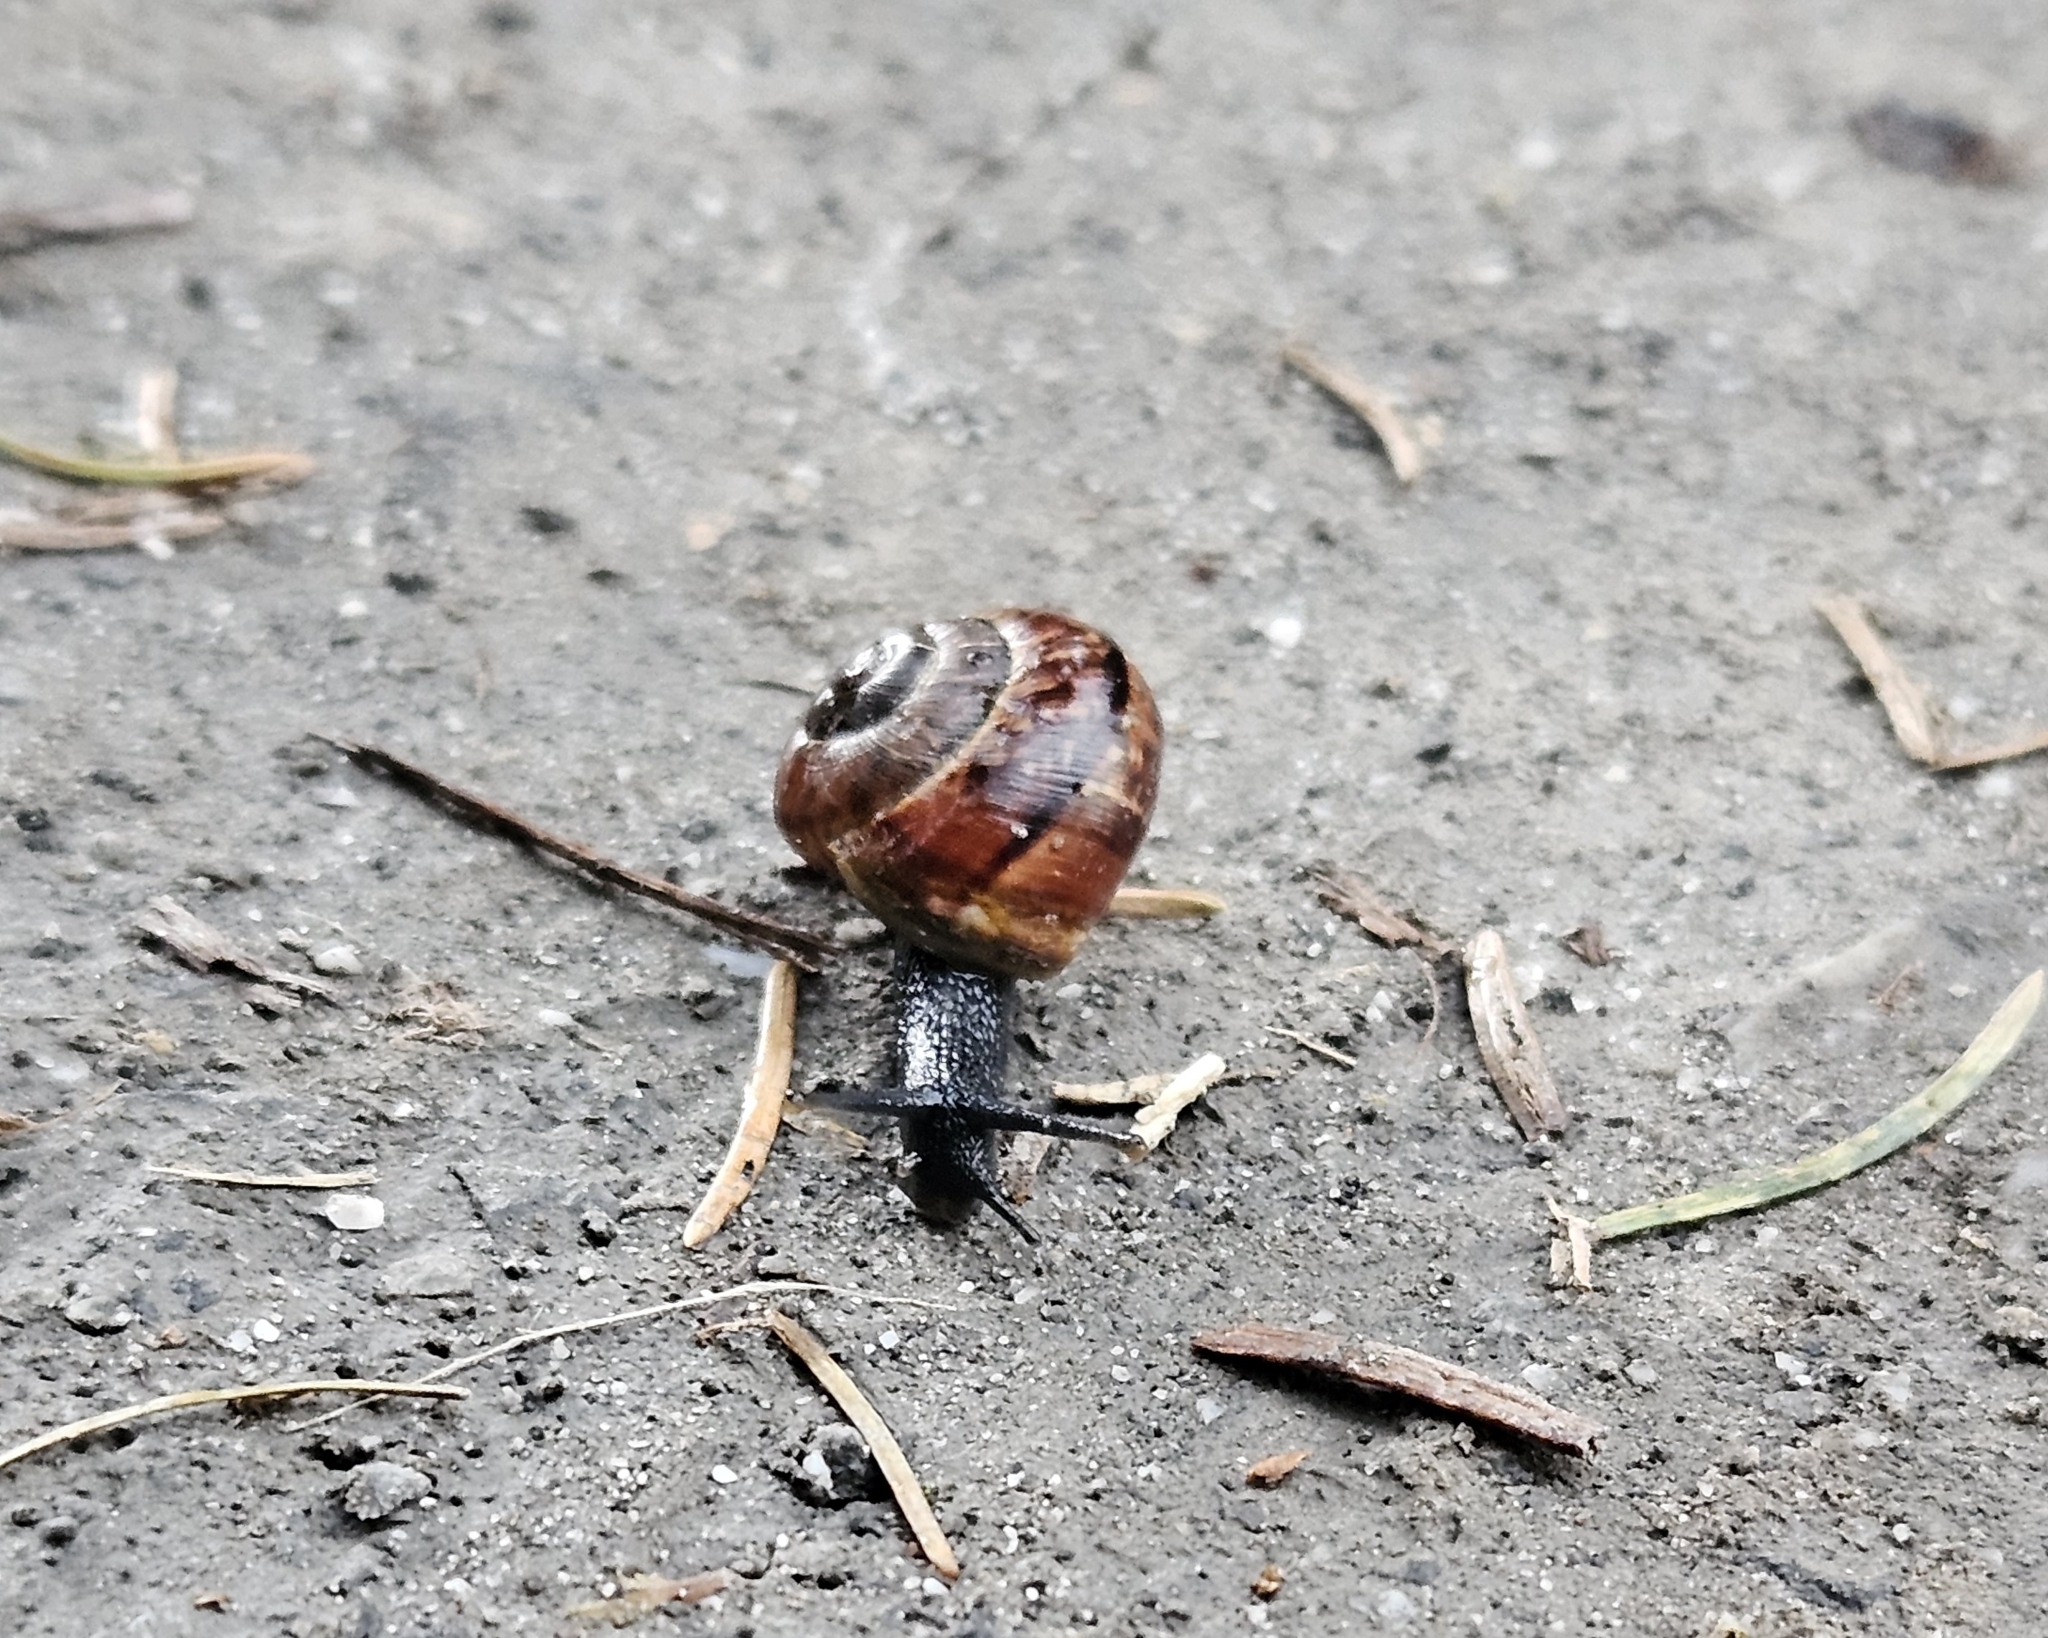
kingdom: Animalia
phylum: Mollusca
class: Gastropoda
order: Stylommatophora
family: Helicidae
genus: Arianta
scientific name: Arianta arbustorum
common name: Copse snail
